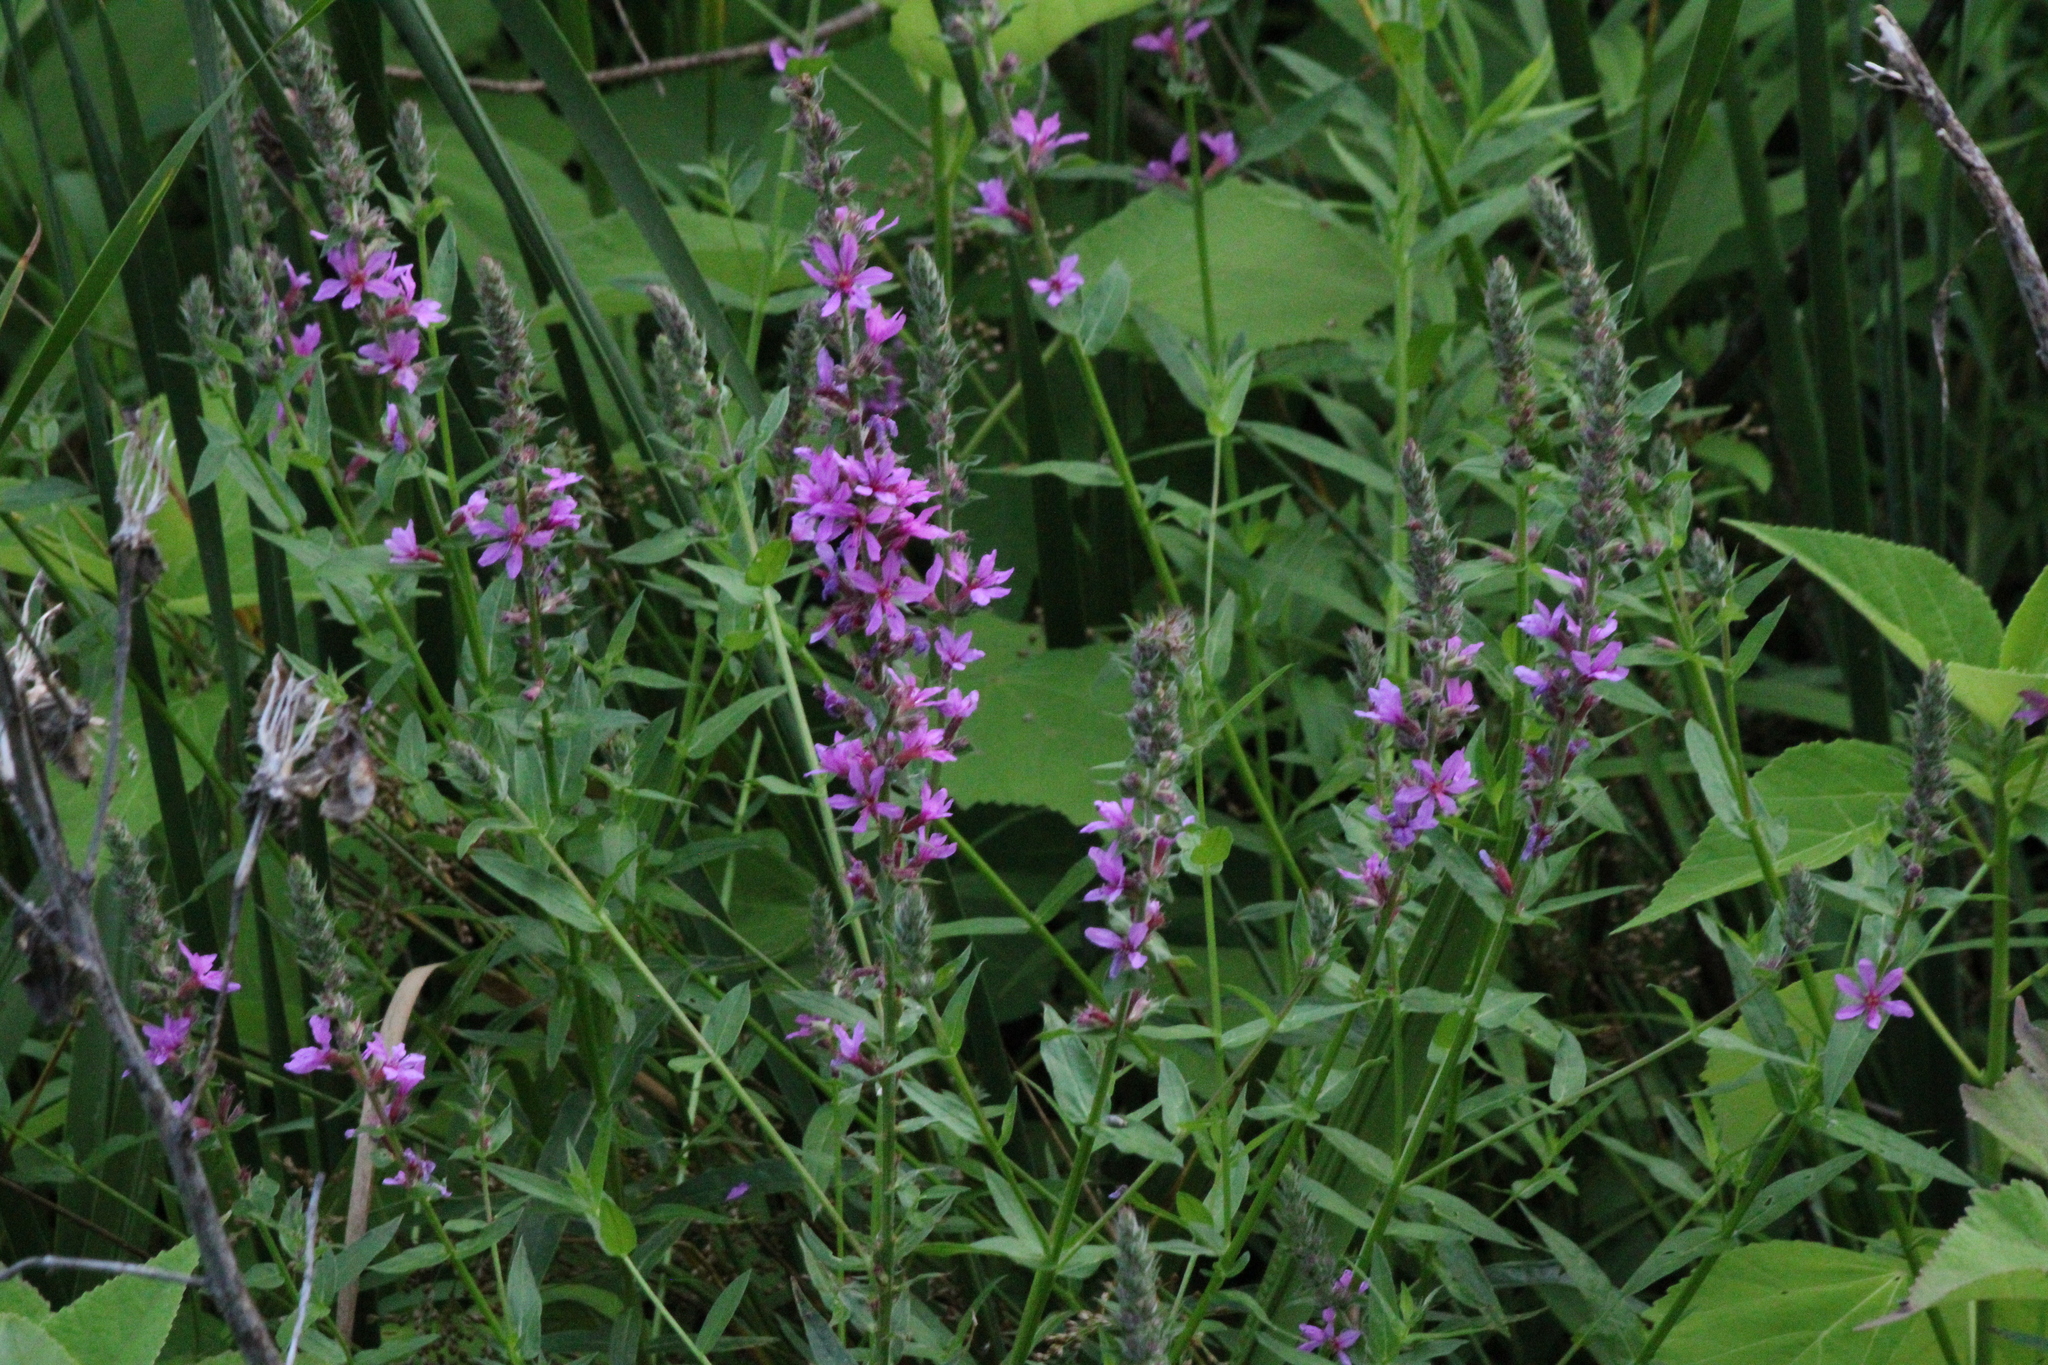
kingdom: Plantae
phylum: Tracheophyta
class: Magnoliopsida
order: Myrtales
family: Lythraceae
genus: Lythrum
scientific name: Lythrum salicaria
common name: Purple loosestrife
